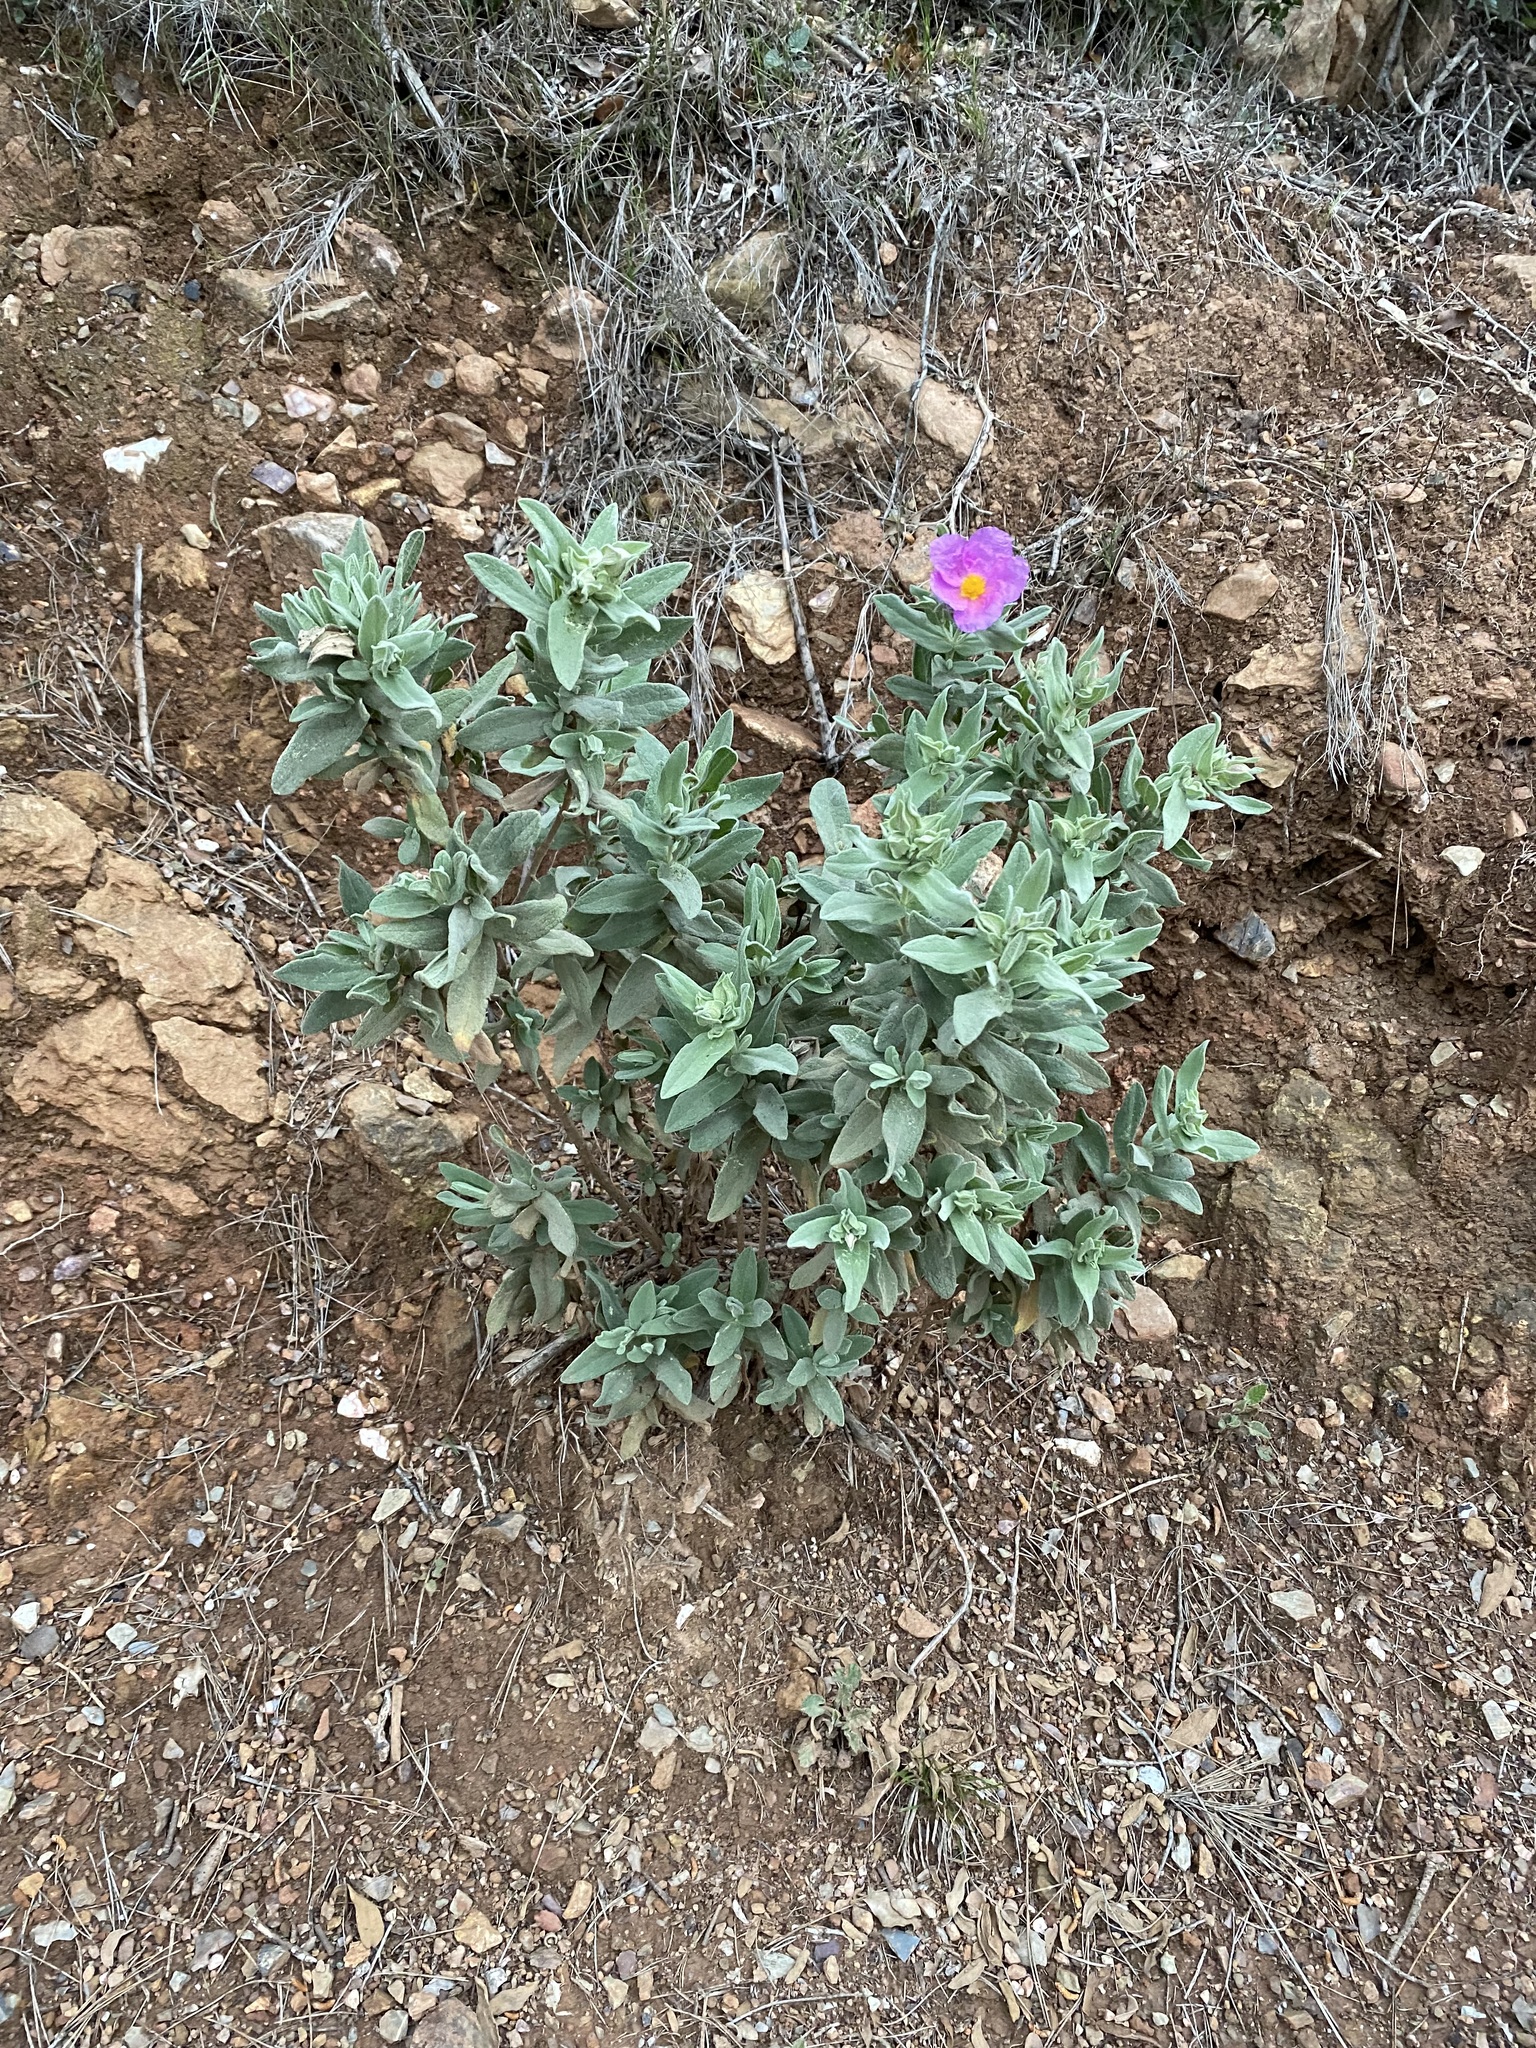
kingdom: Plantae
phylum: Tracheophyta
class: Magnoliopsida
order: Malvales
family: Cistaceae
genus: Cistus
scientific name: Cistus albidus
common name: White-leaf rock-rose
